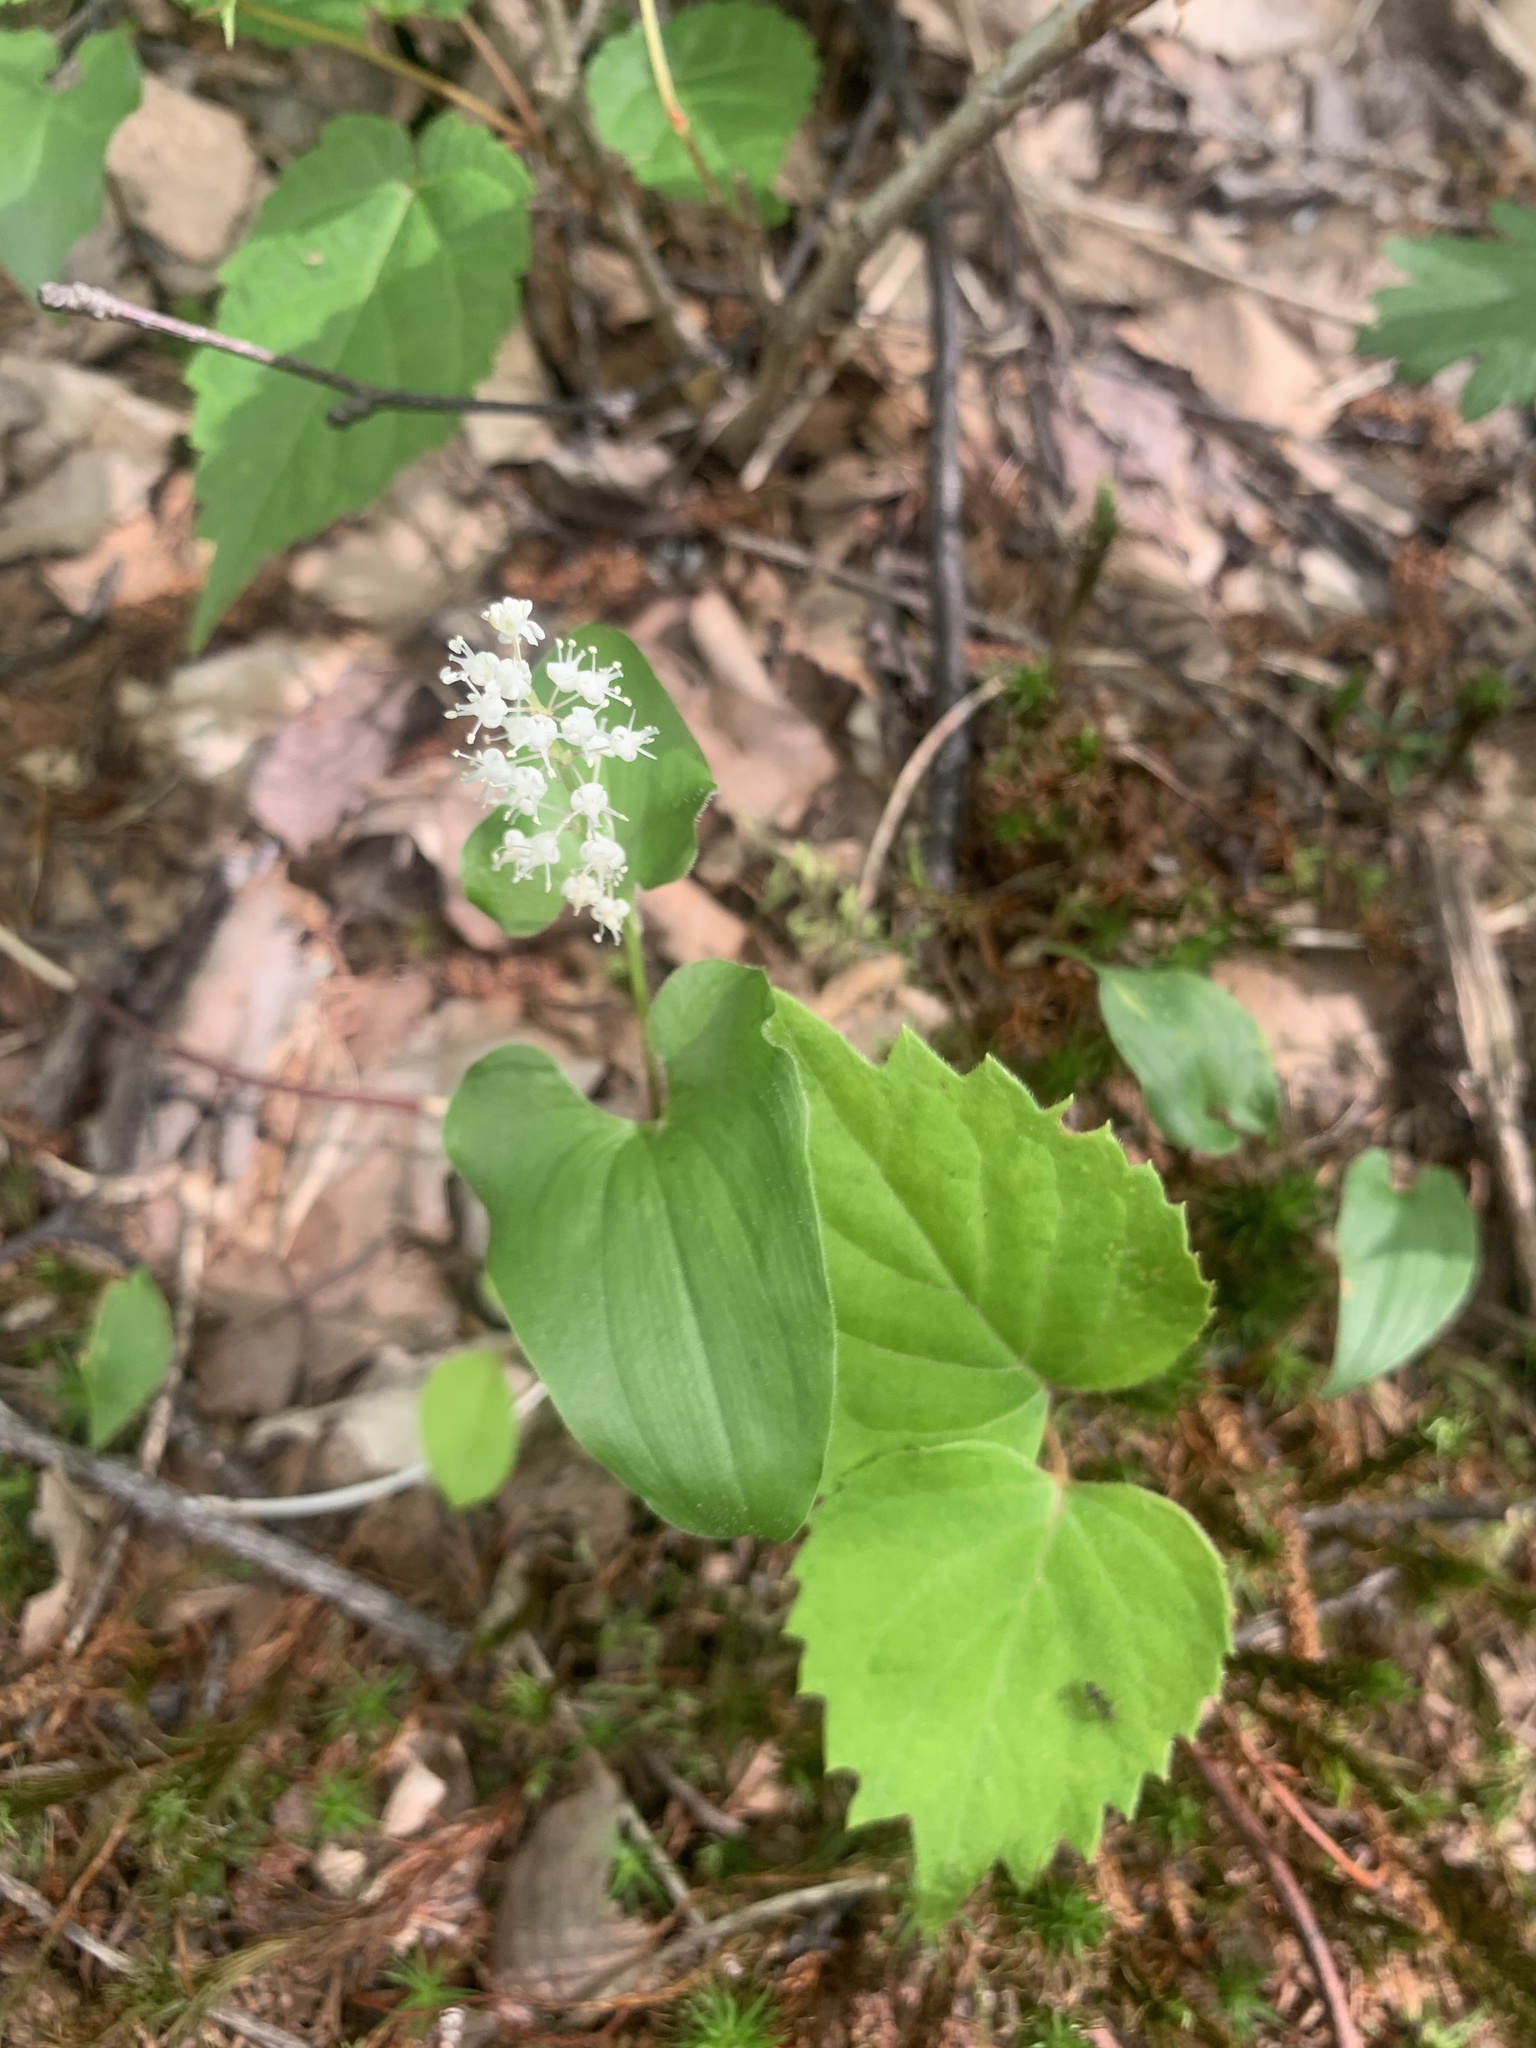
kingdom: Plantae
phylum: Tracheophyta
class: Liliopsida
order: Asparagales
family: Asparagaceae
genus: Maianthemum
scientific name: Maianthemum dilatatum
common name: False lily-of-the-valley
